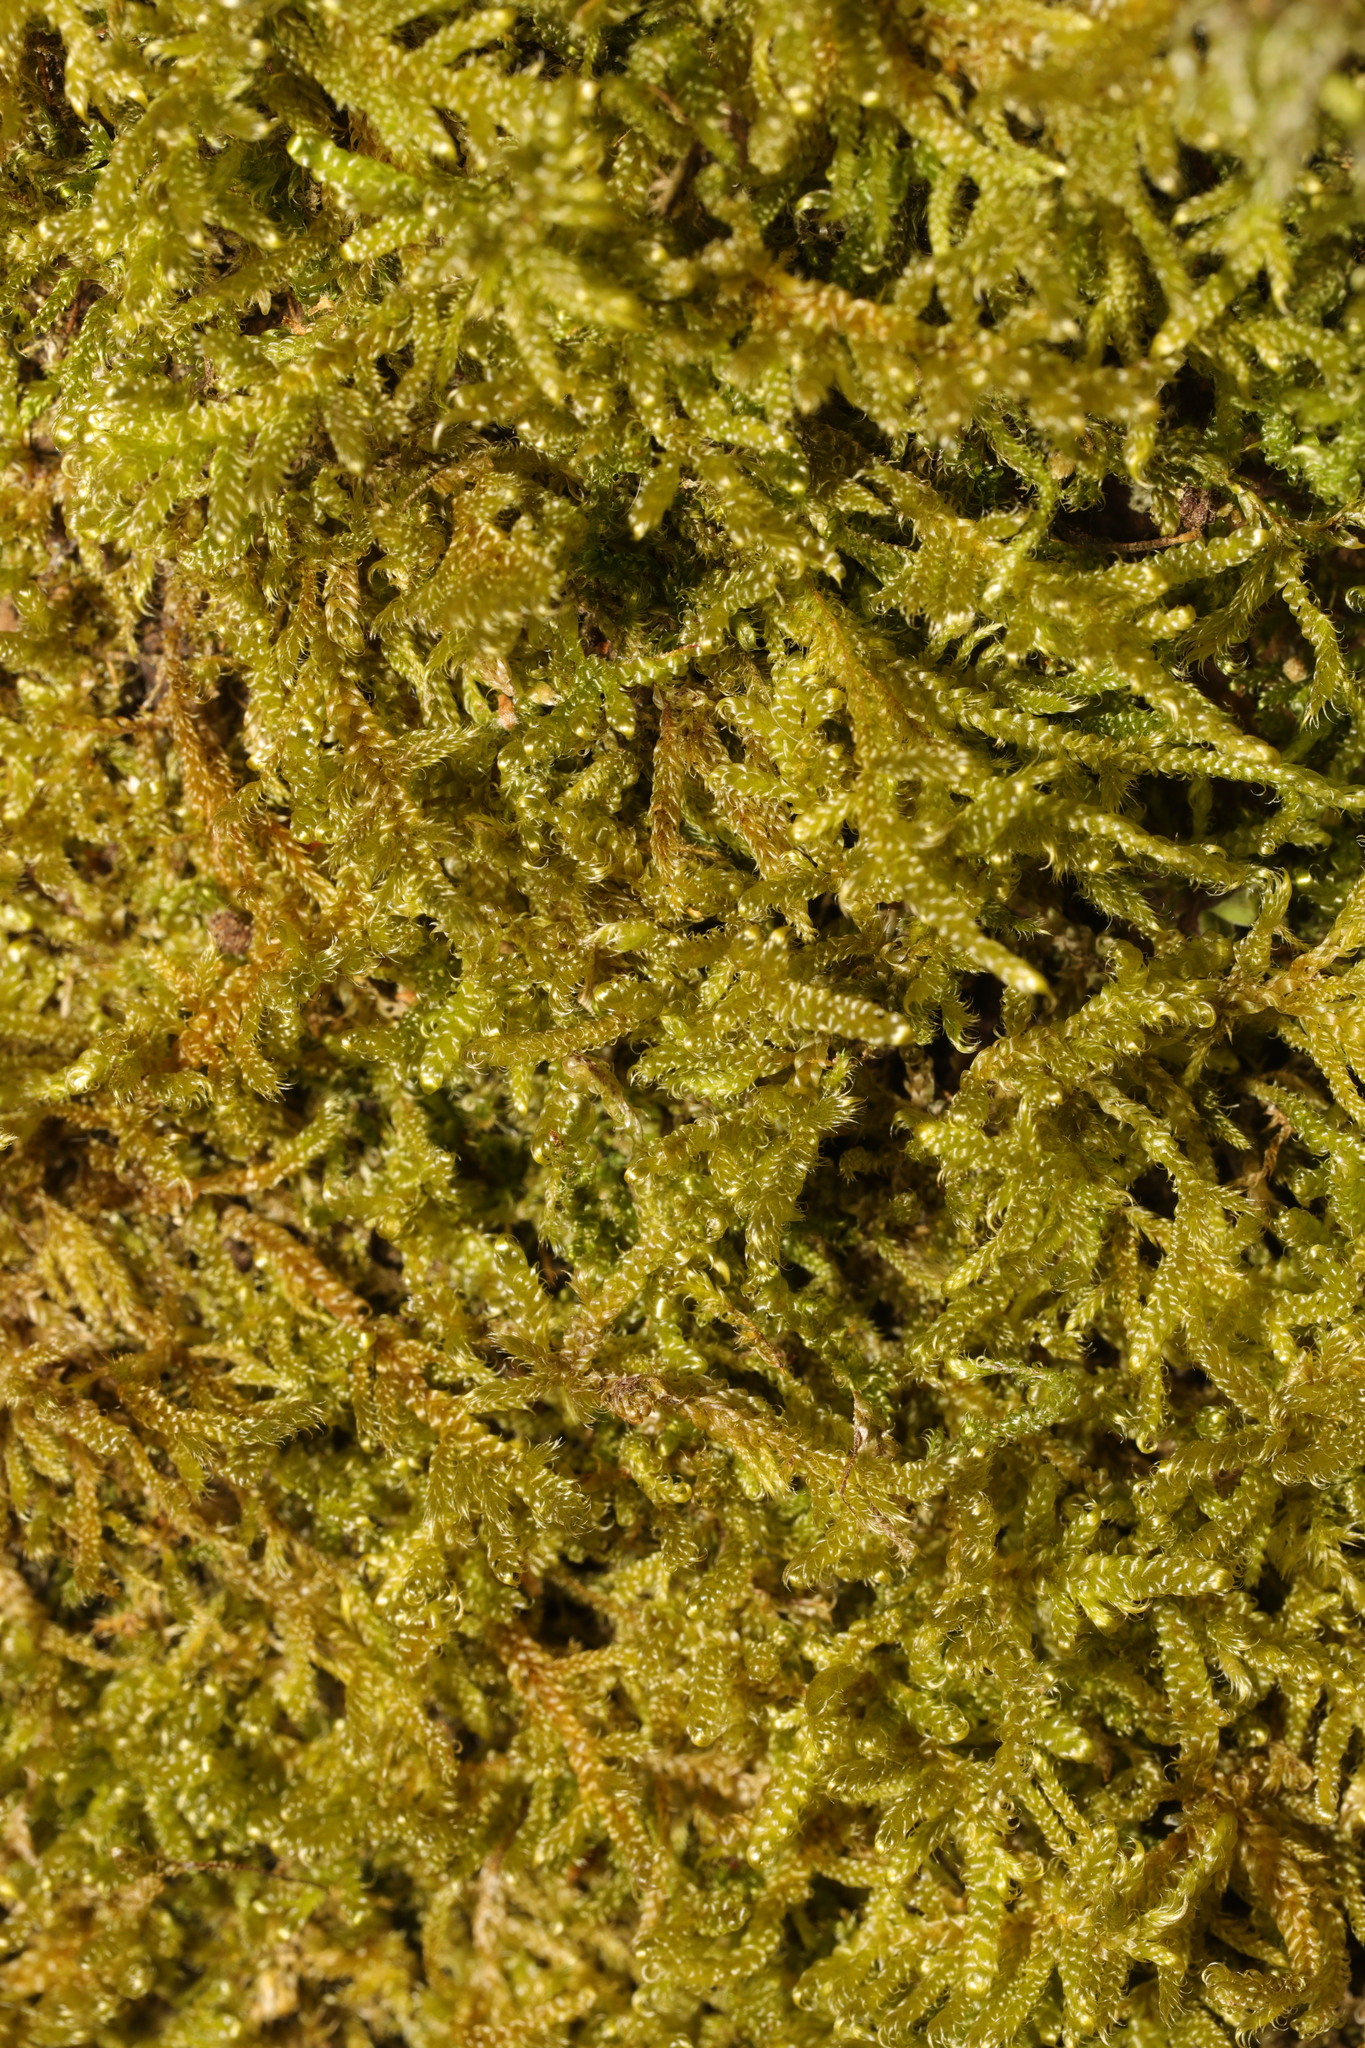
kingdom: Plantae
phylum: Bryophyta
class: Bryopsida
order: Hypnales
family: Hypnaceae
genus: Hypnum
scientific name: Hypnum cupressiforme
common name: Cypress-leaved plait-moss
